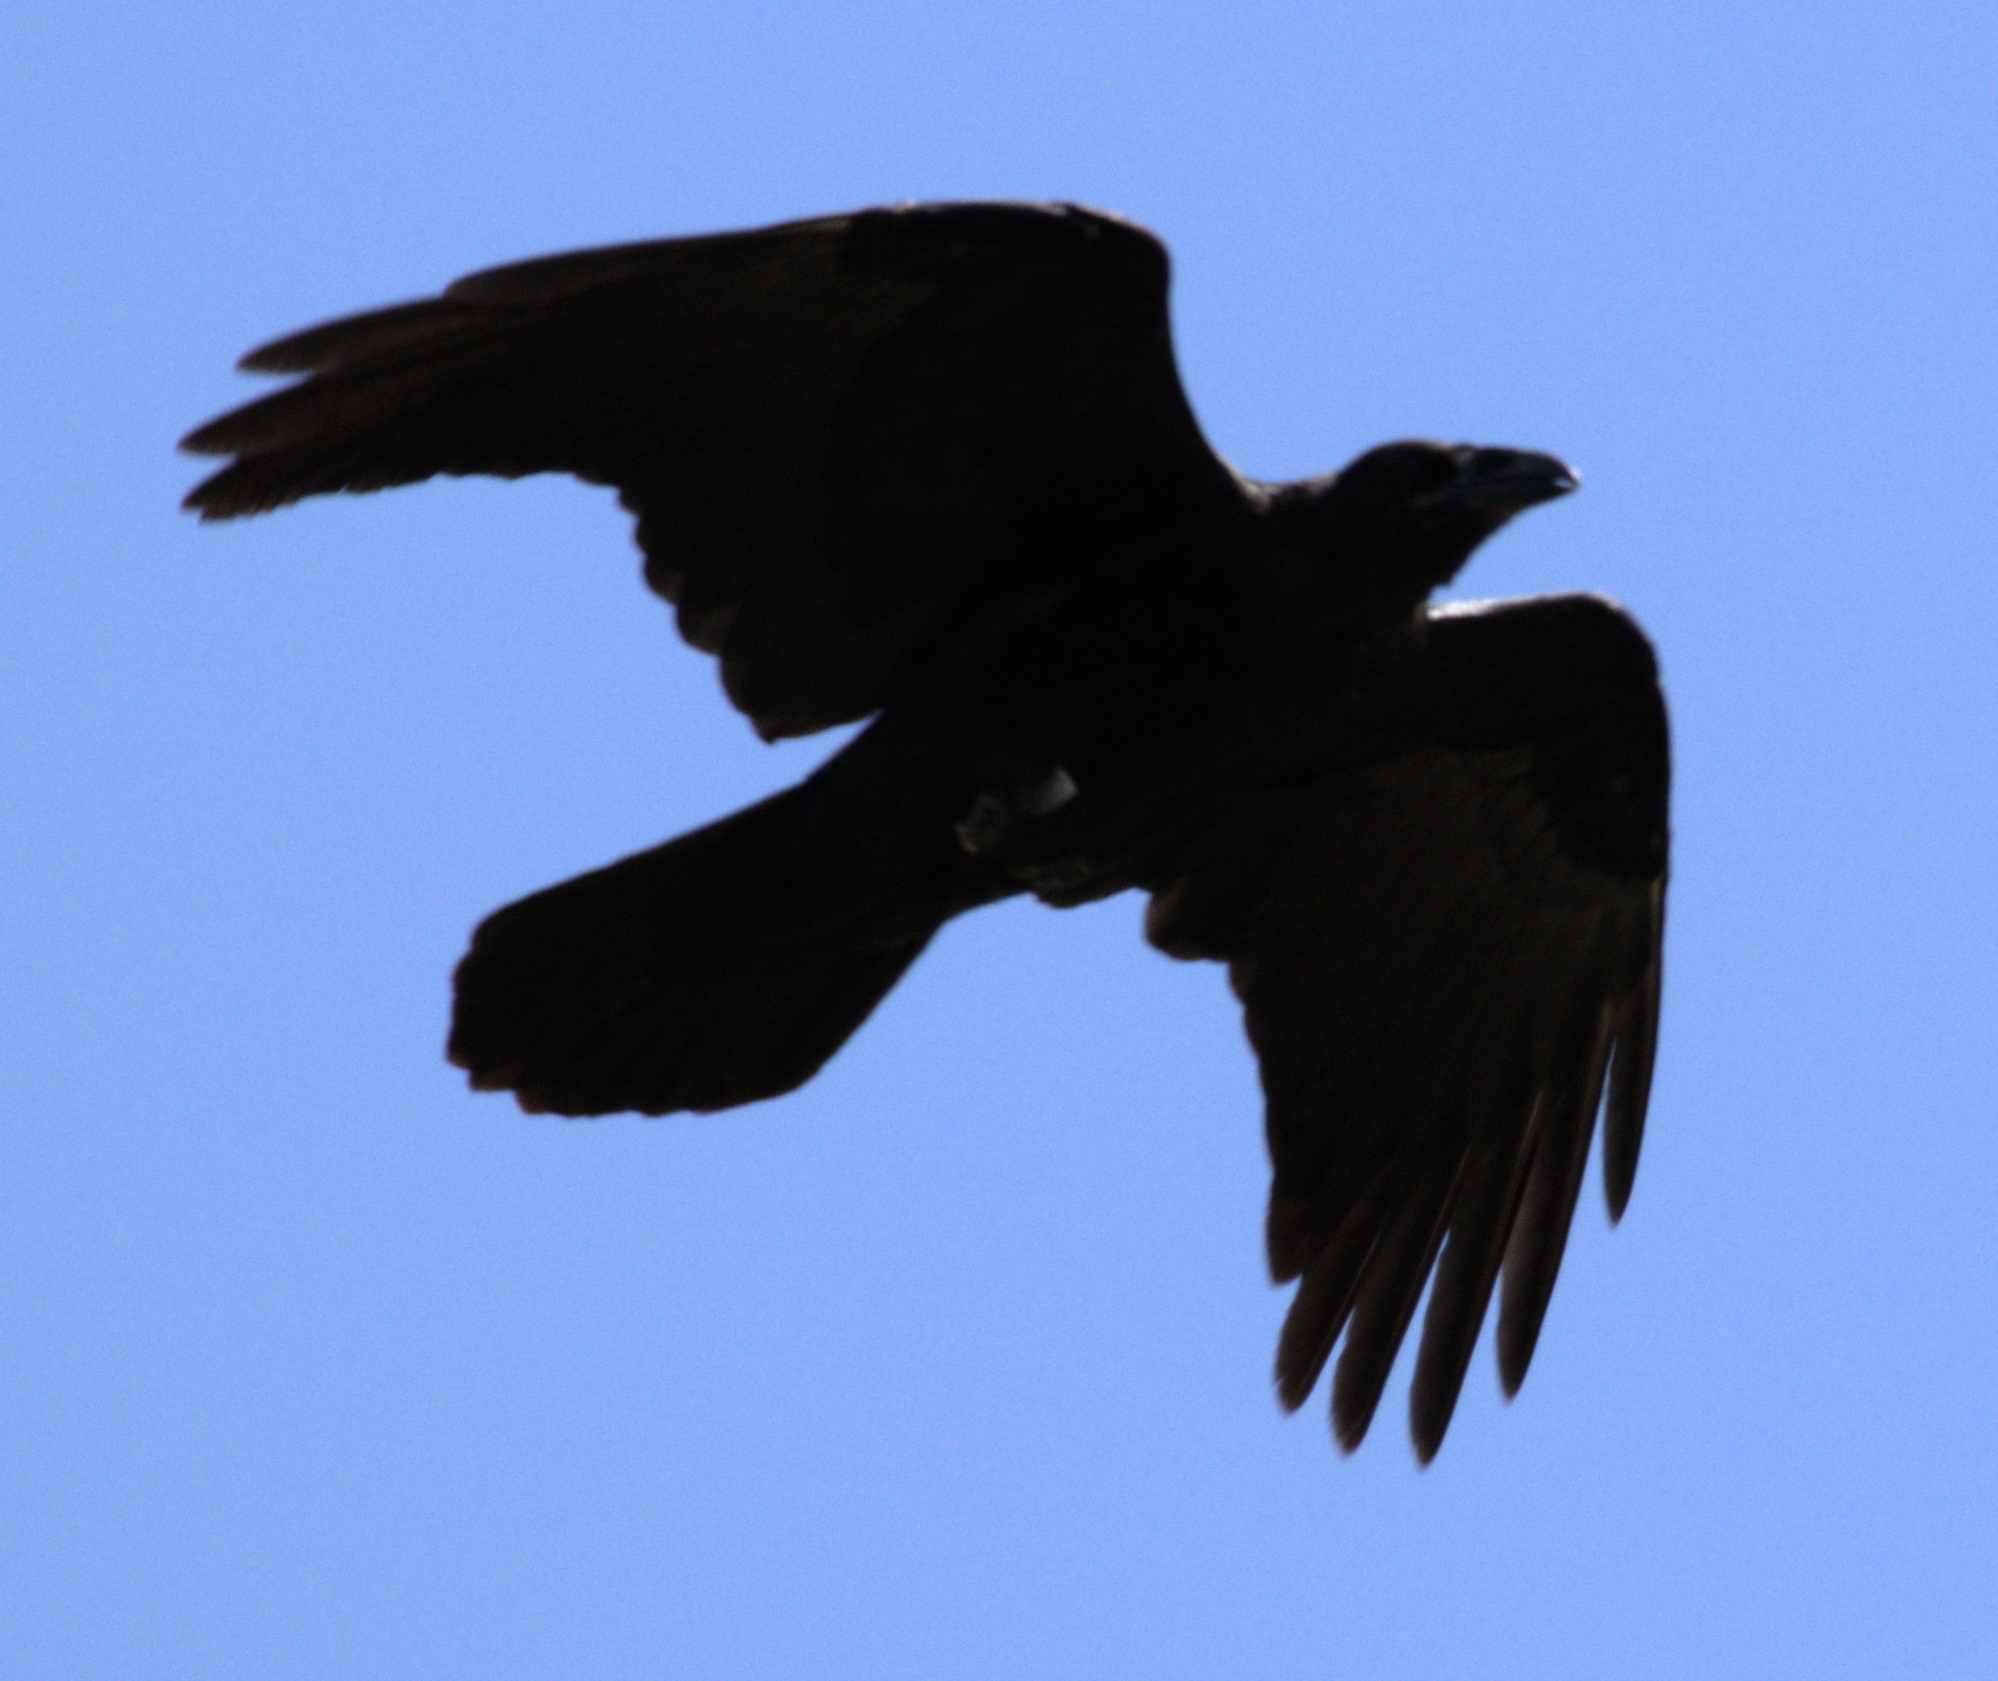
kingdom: Animalia
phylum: Chordata
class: Aves
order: Passeriformes
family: Corvidae
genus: Corvus
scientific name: Corvus corax
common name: Common raven
